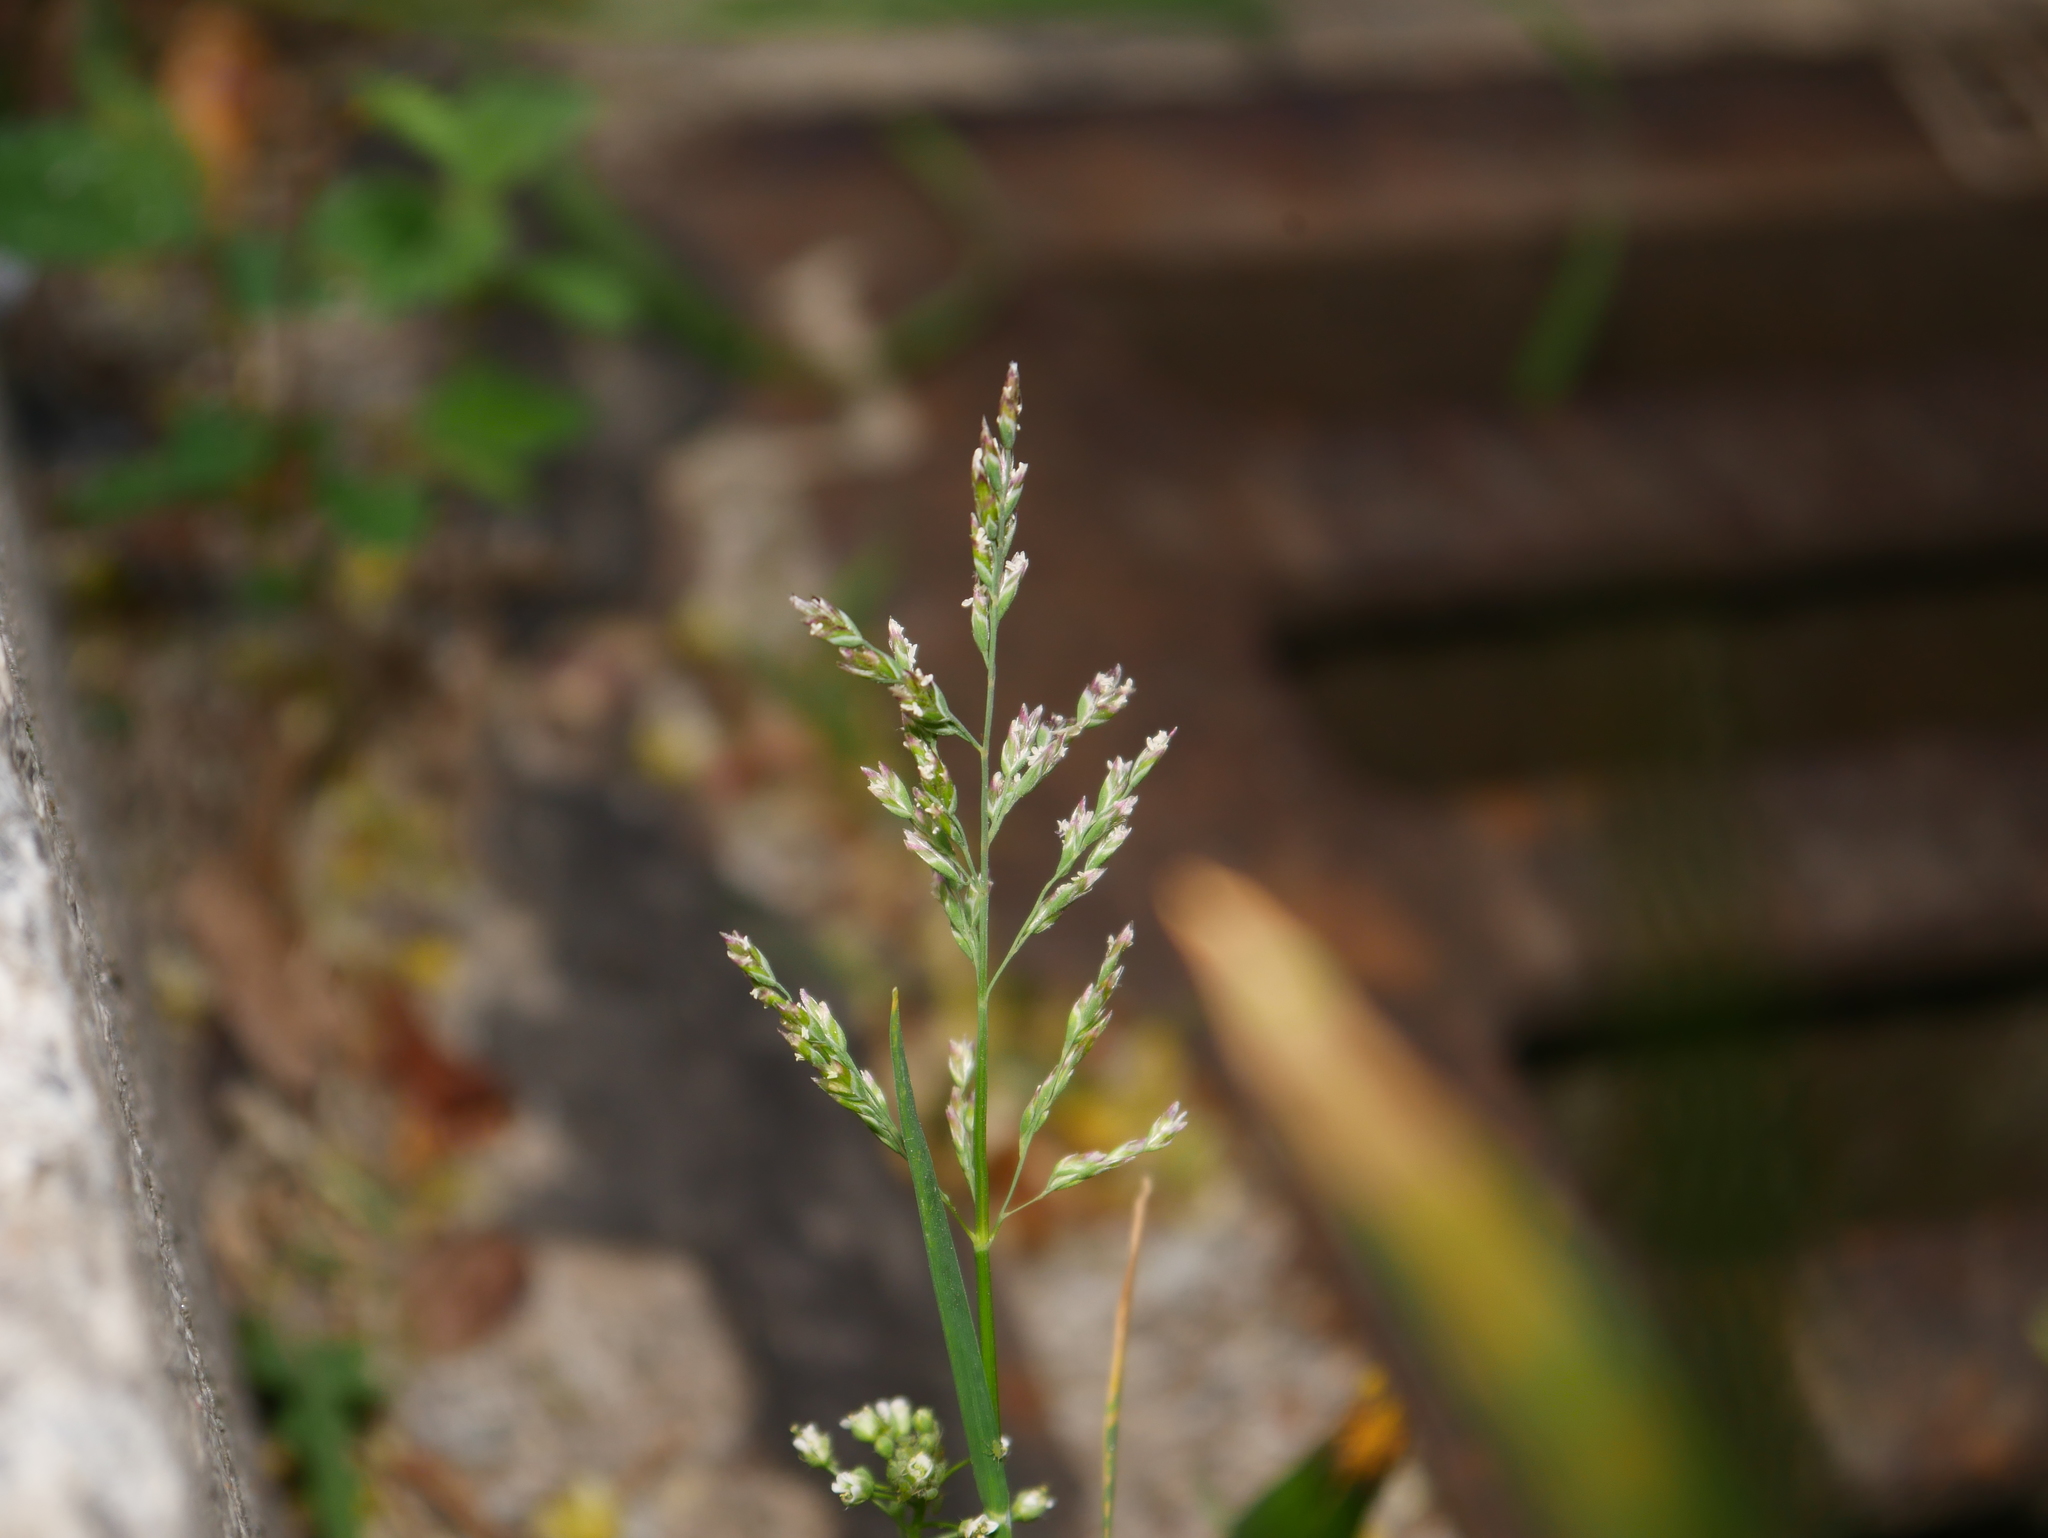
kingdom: Plantae
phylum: Tracheophyta
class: Liliopsida
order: Poales
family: Poaceae
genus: Poa
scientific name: Poa annua
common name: Annual bluegrass
